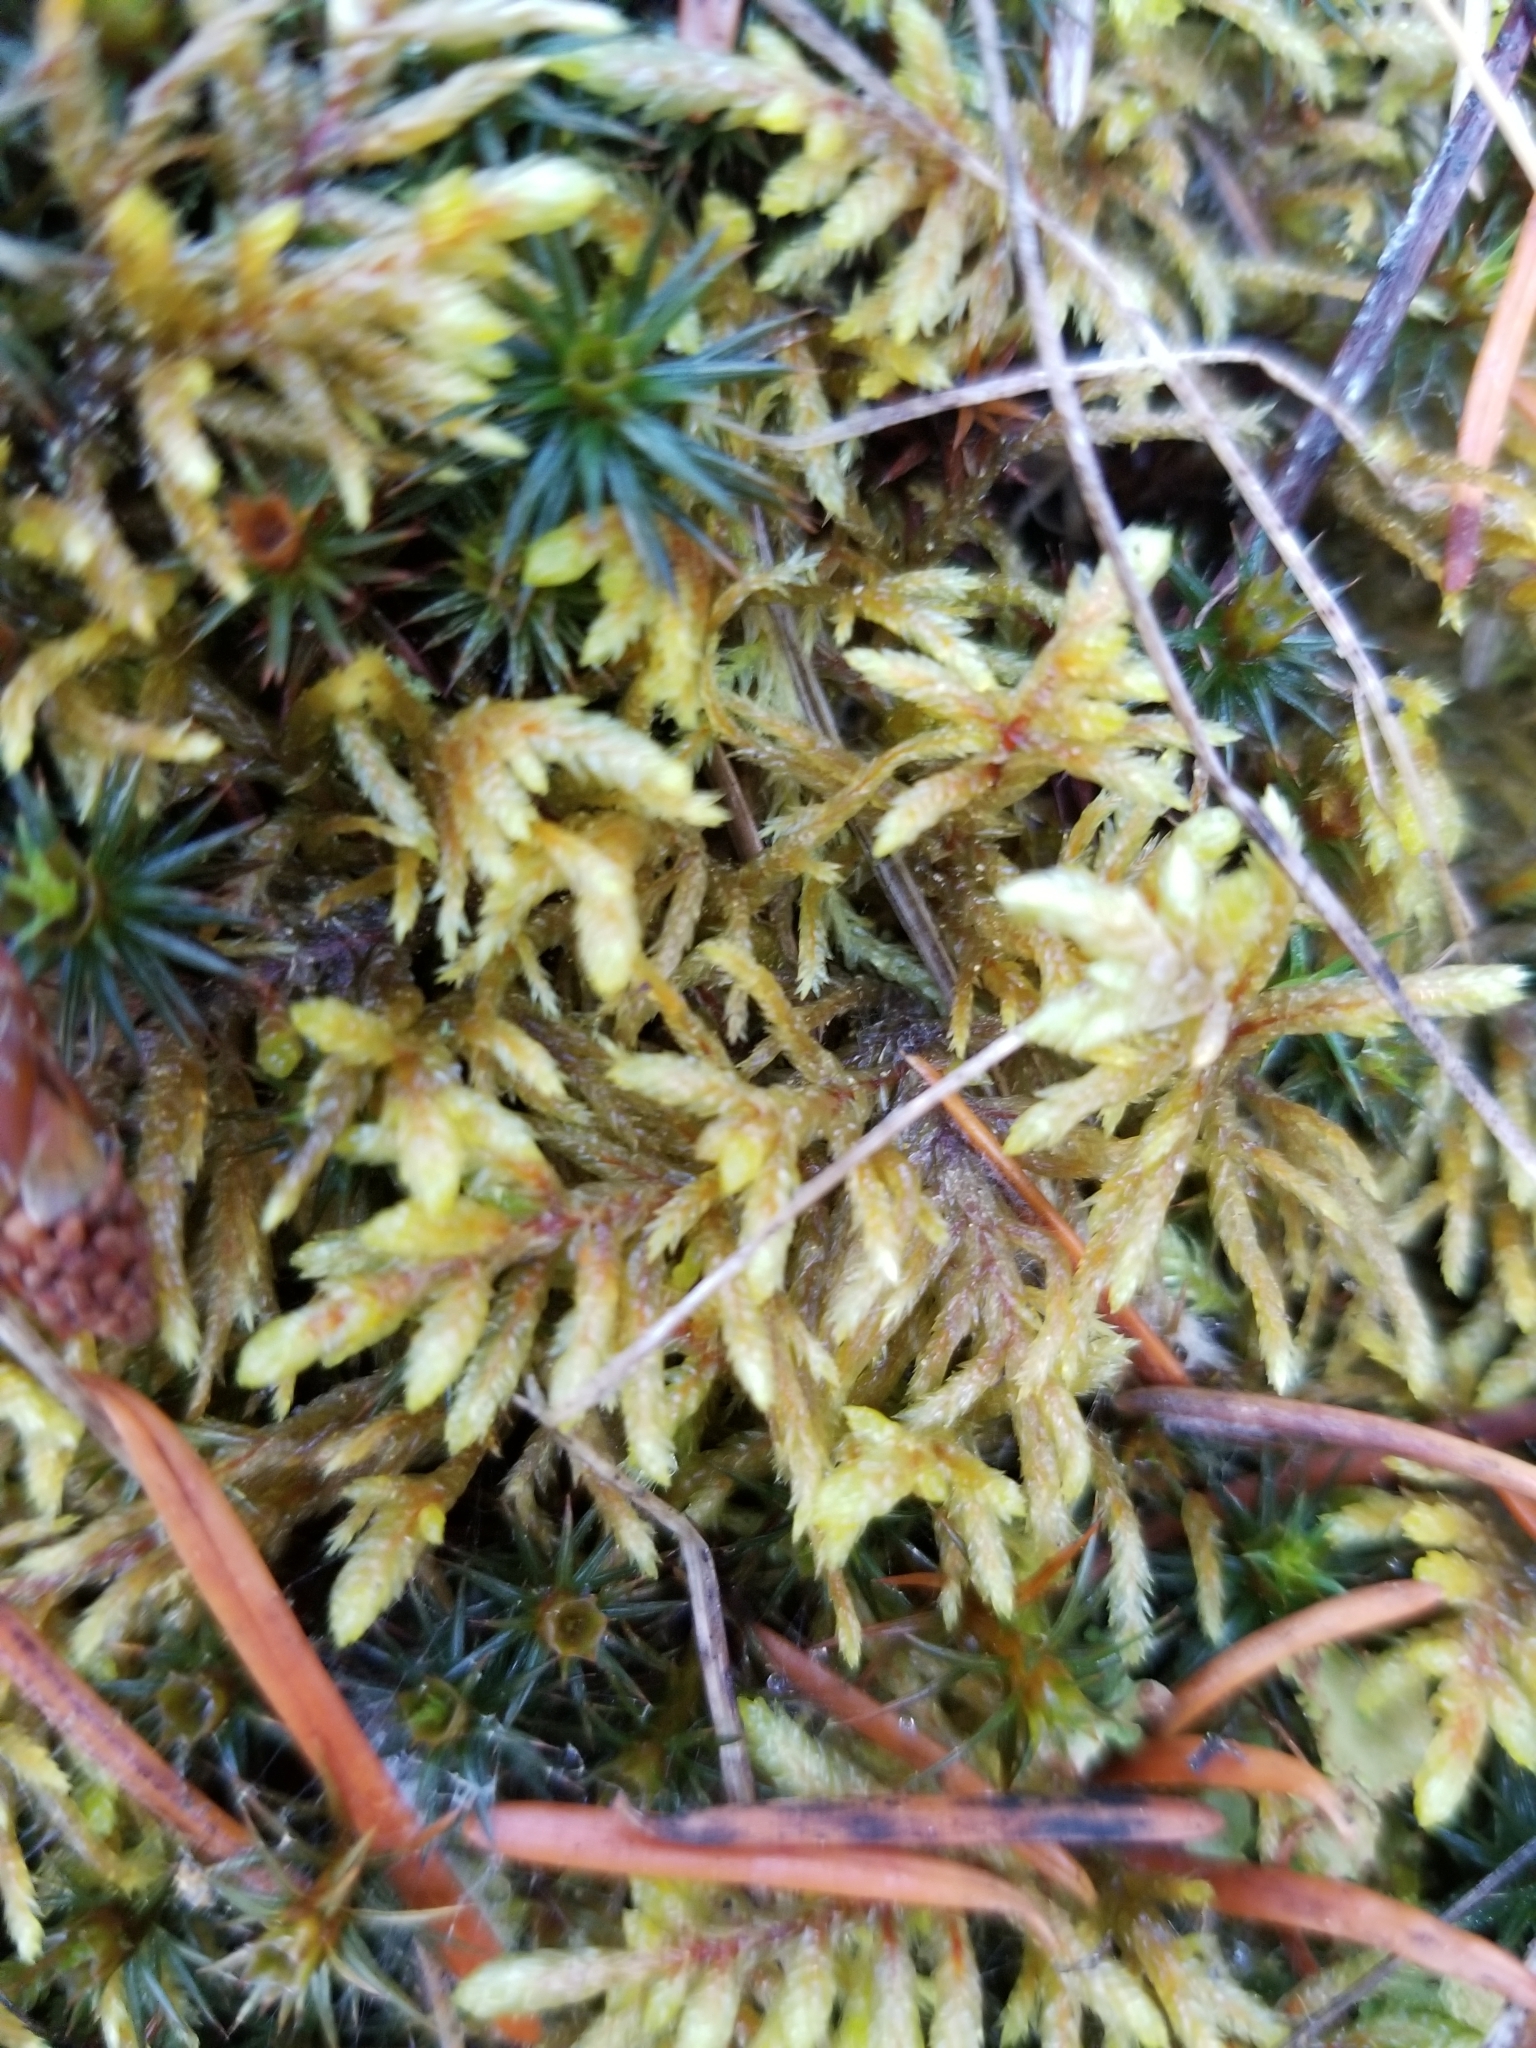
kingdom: Plantae
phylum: Bryophyta
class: Bryopsida
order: Hypnales
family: Hylocomiaceae
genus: Pleurozium
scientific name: Pleurozium schreberi
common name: Red-stemmed feather moss
